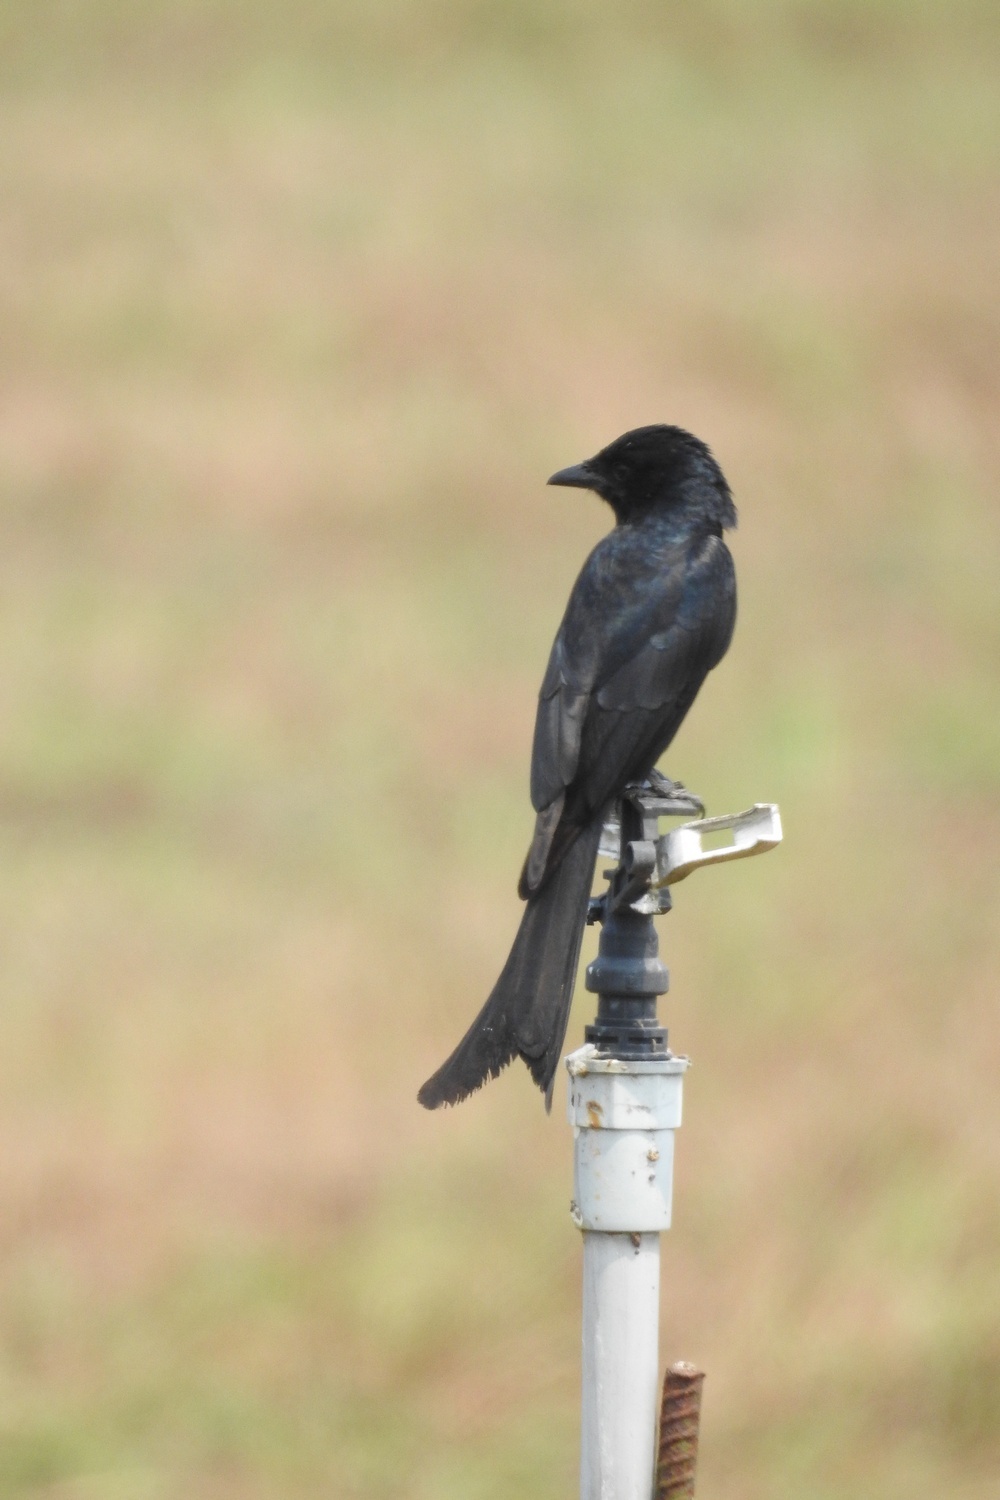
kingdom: Animalia
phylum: Chordata
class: Aves
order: Passeriformes
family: Dicruridae
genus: Dicrurus
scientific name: Dicrurus macrocercus
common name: Black drongo
